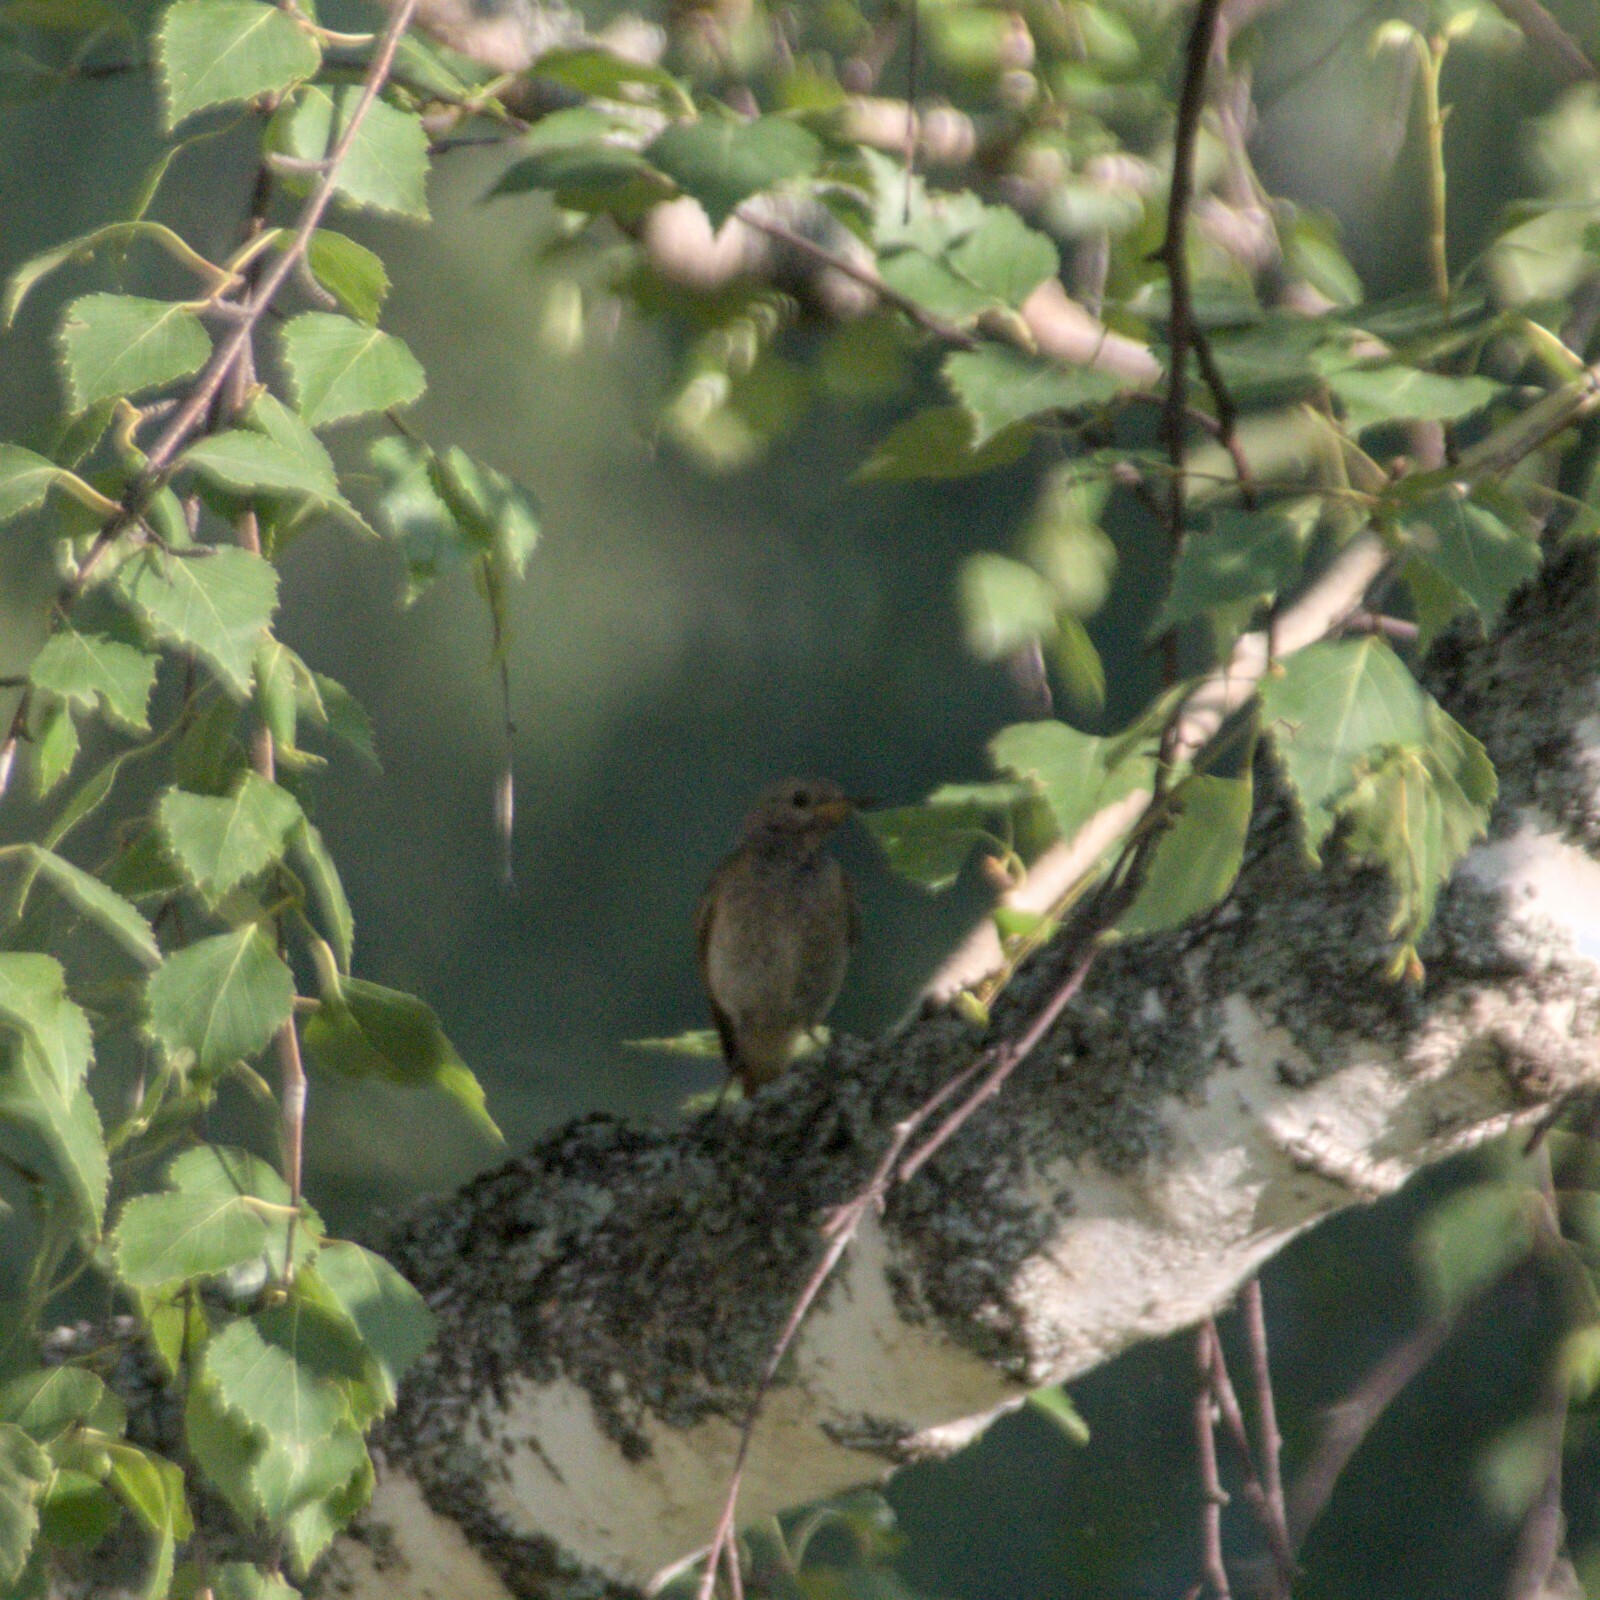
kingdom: Animalia
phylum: Chordata
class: Aves
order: Passeriformes
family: Muscicapidae
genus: Phoenicurus
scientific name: Phoenicurus phoenicurus
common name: Common redstart
